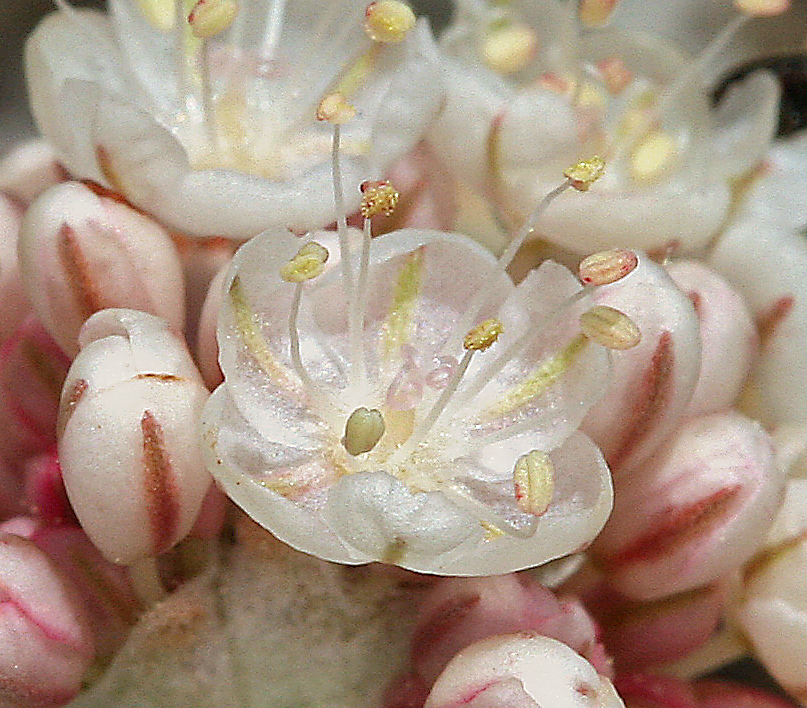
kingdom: Plantae
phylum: Tracheophyta
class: Magnoliopsida
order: Caryophyllales
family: Polygonaceae
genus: Eriogonum
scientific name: Eriogonum ovalifolium
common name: Cushion buckwheat
